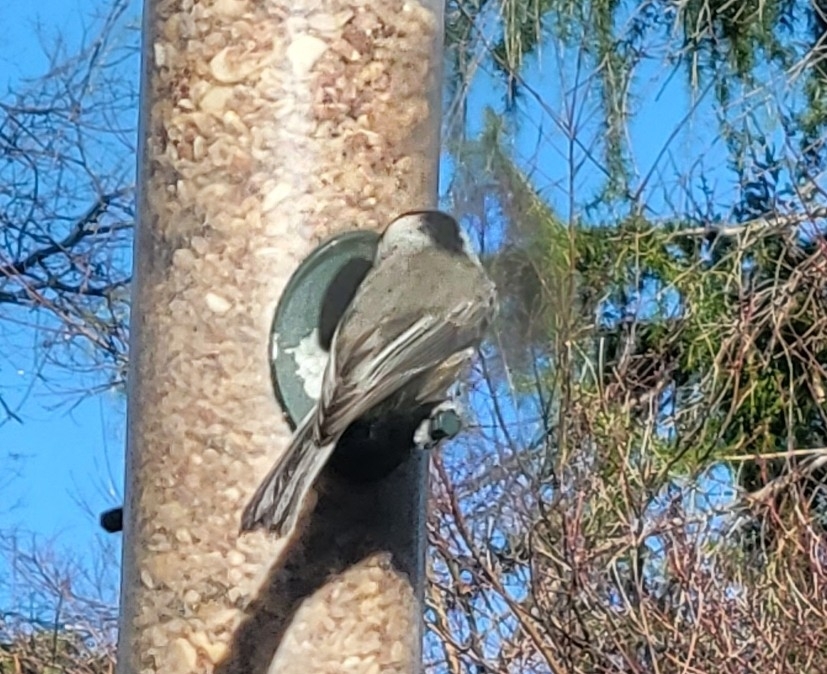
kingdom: Animalia
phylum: Chordata
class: Aves
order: Passeriformes
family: Paridae
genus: Poecile
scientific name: Poecile carolinensis
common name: Carolina chickadee
